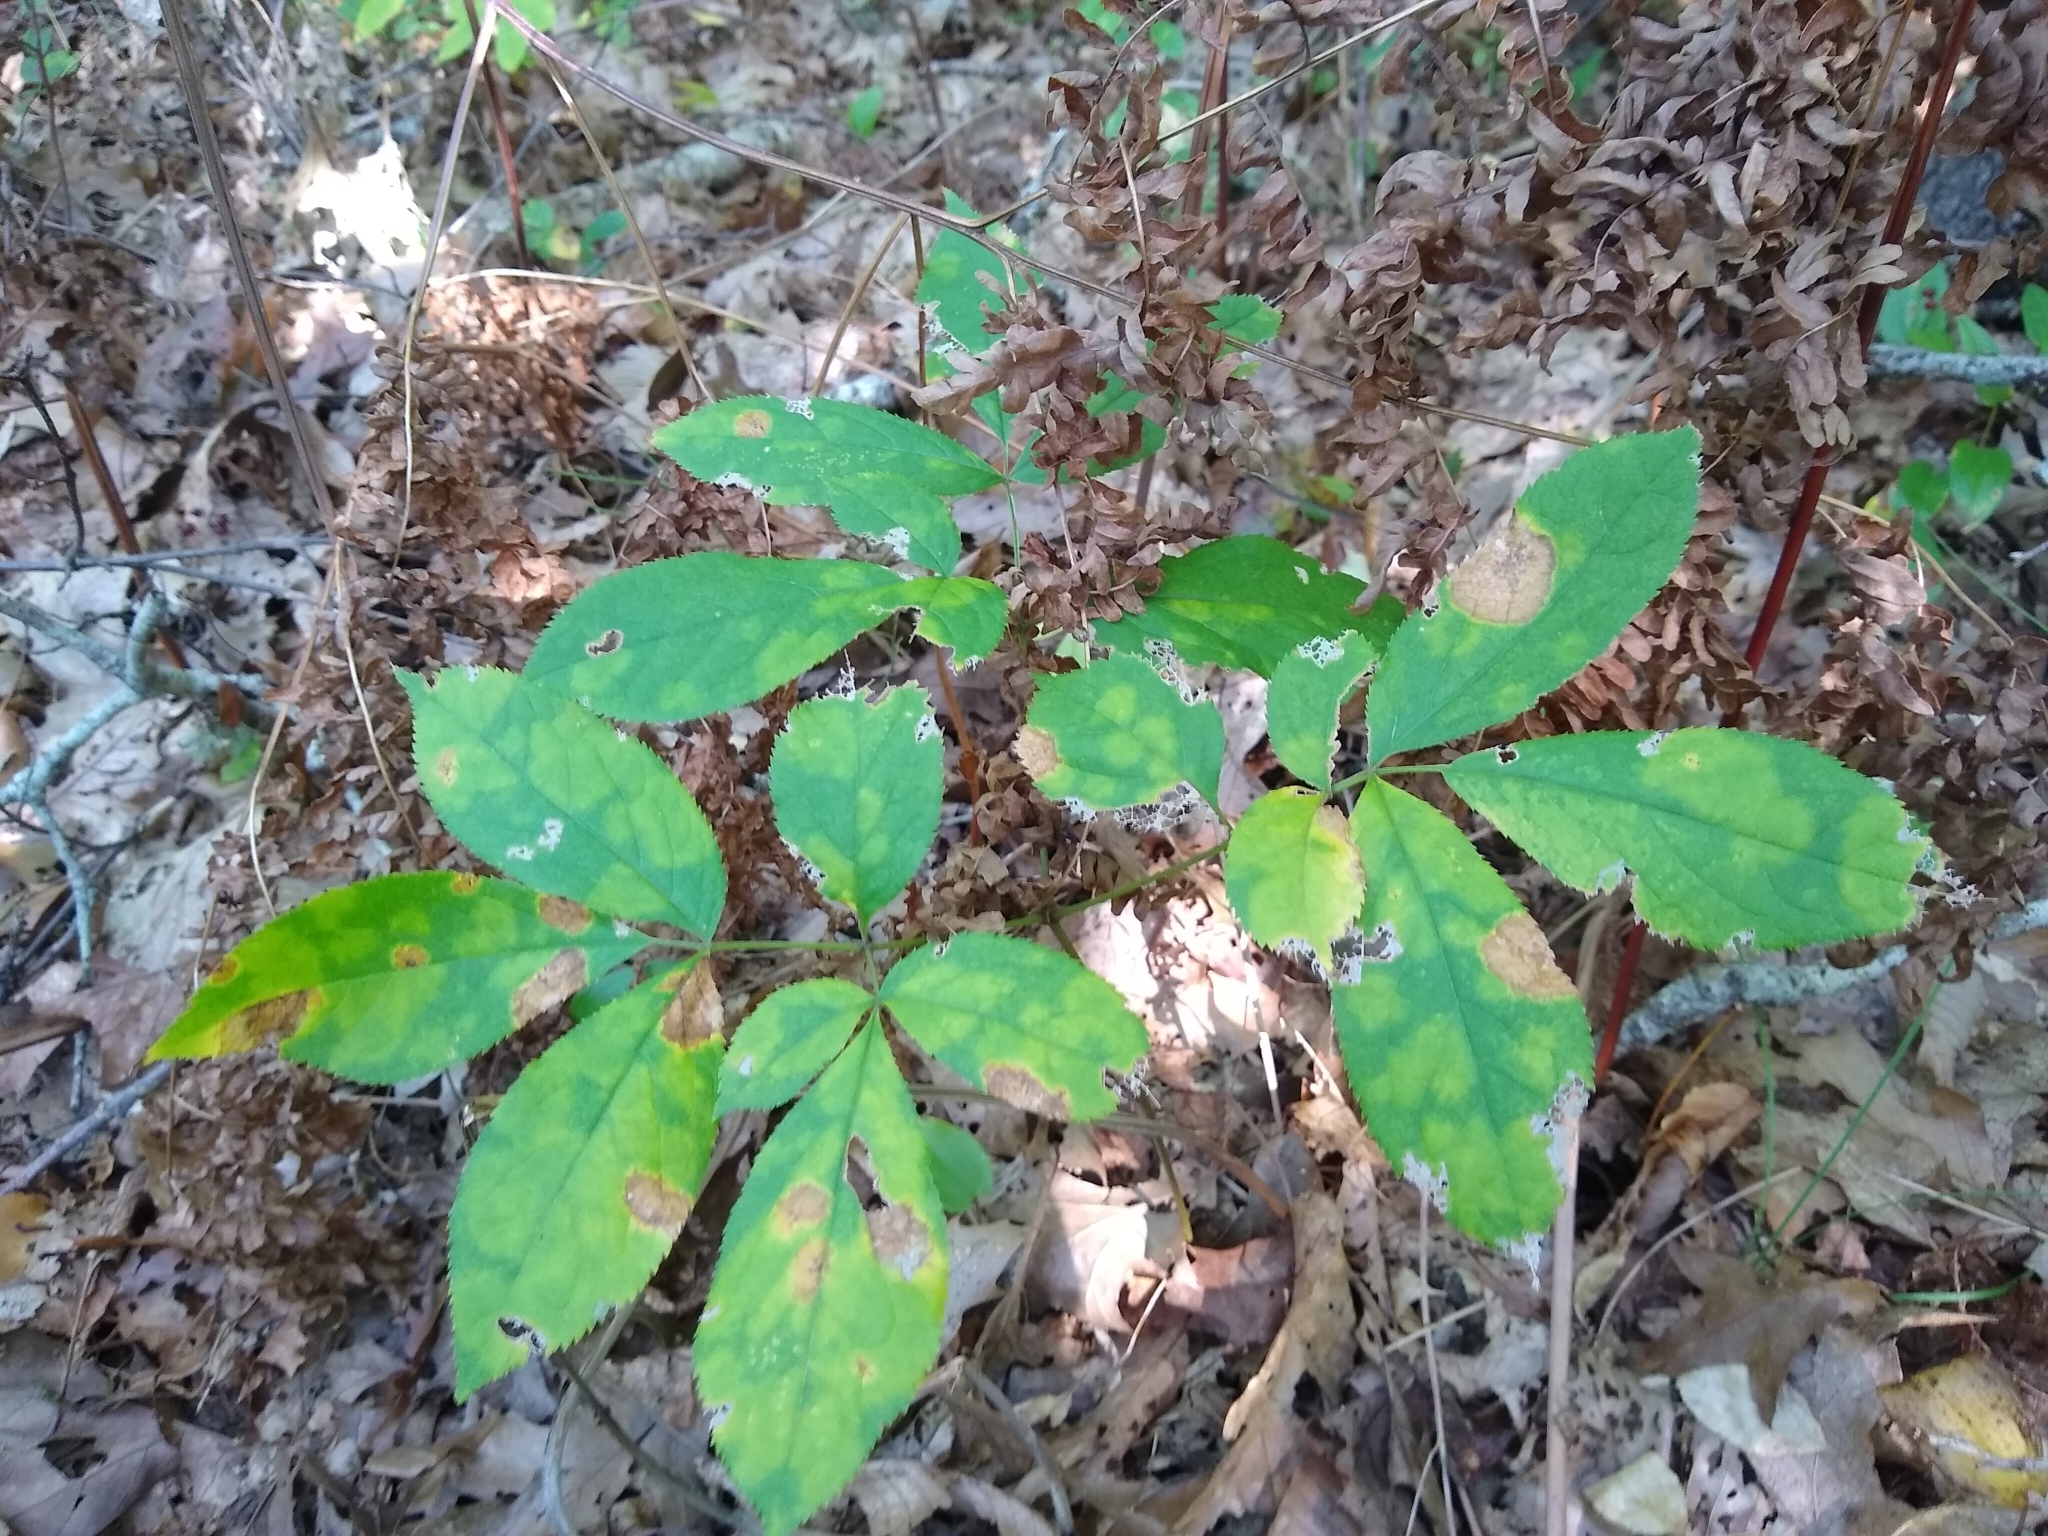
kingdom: Plantae
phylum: Tracheophyta
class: Magnoliopsida
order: Apiales
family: Araliaceae
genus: Aralia
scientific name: Aralia nudicaulis
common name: Wild sarsaparilla
